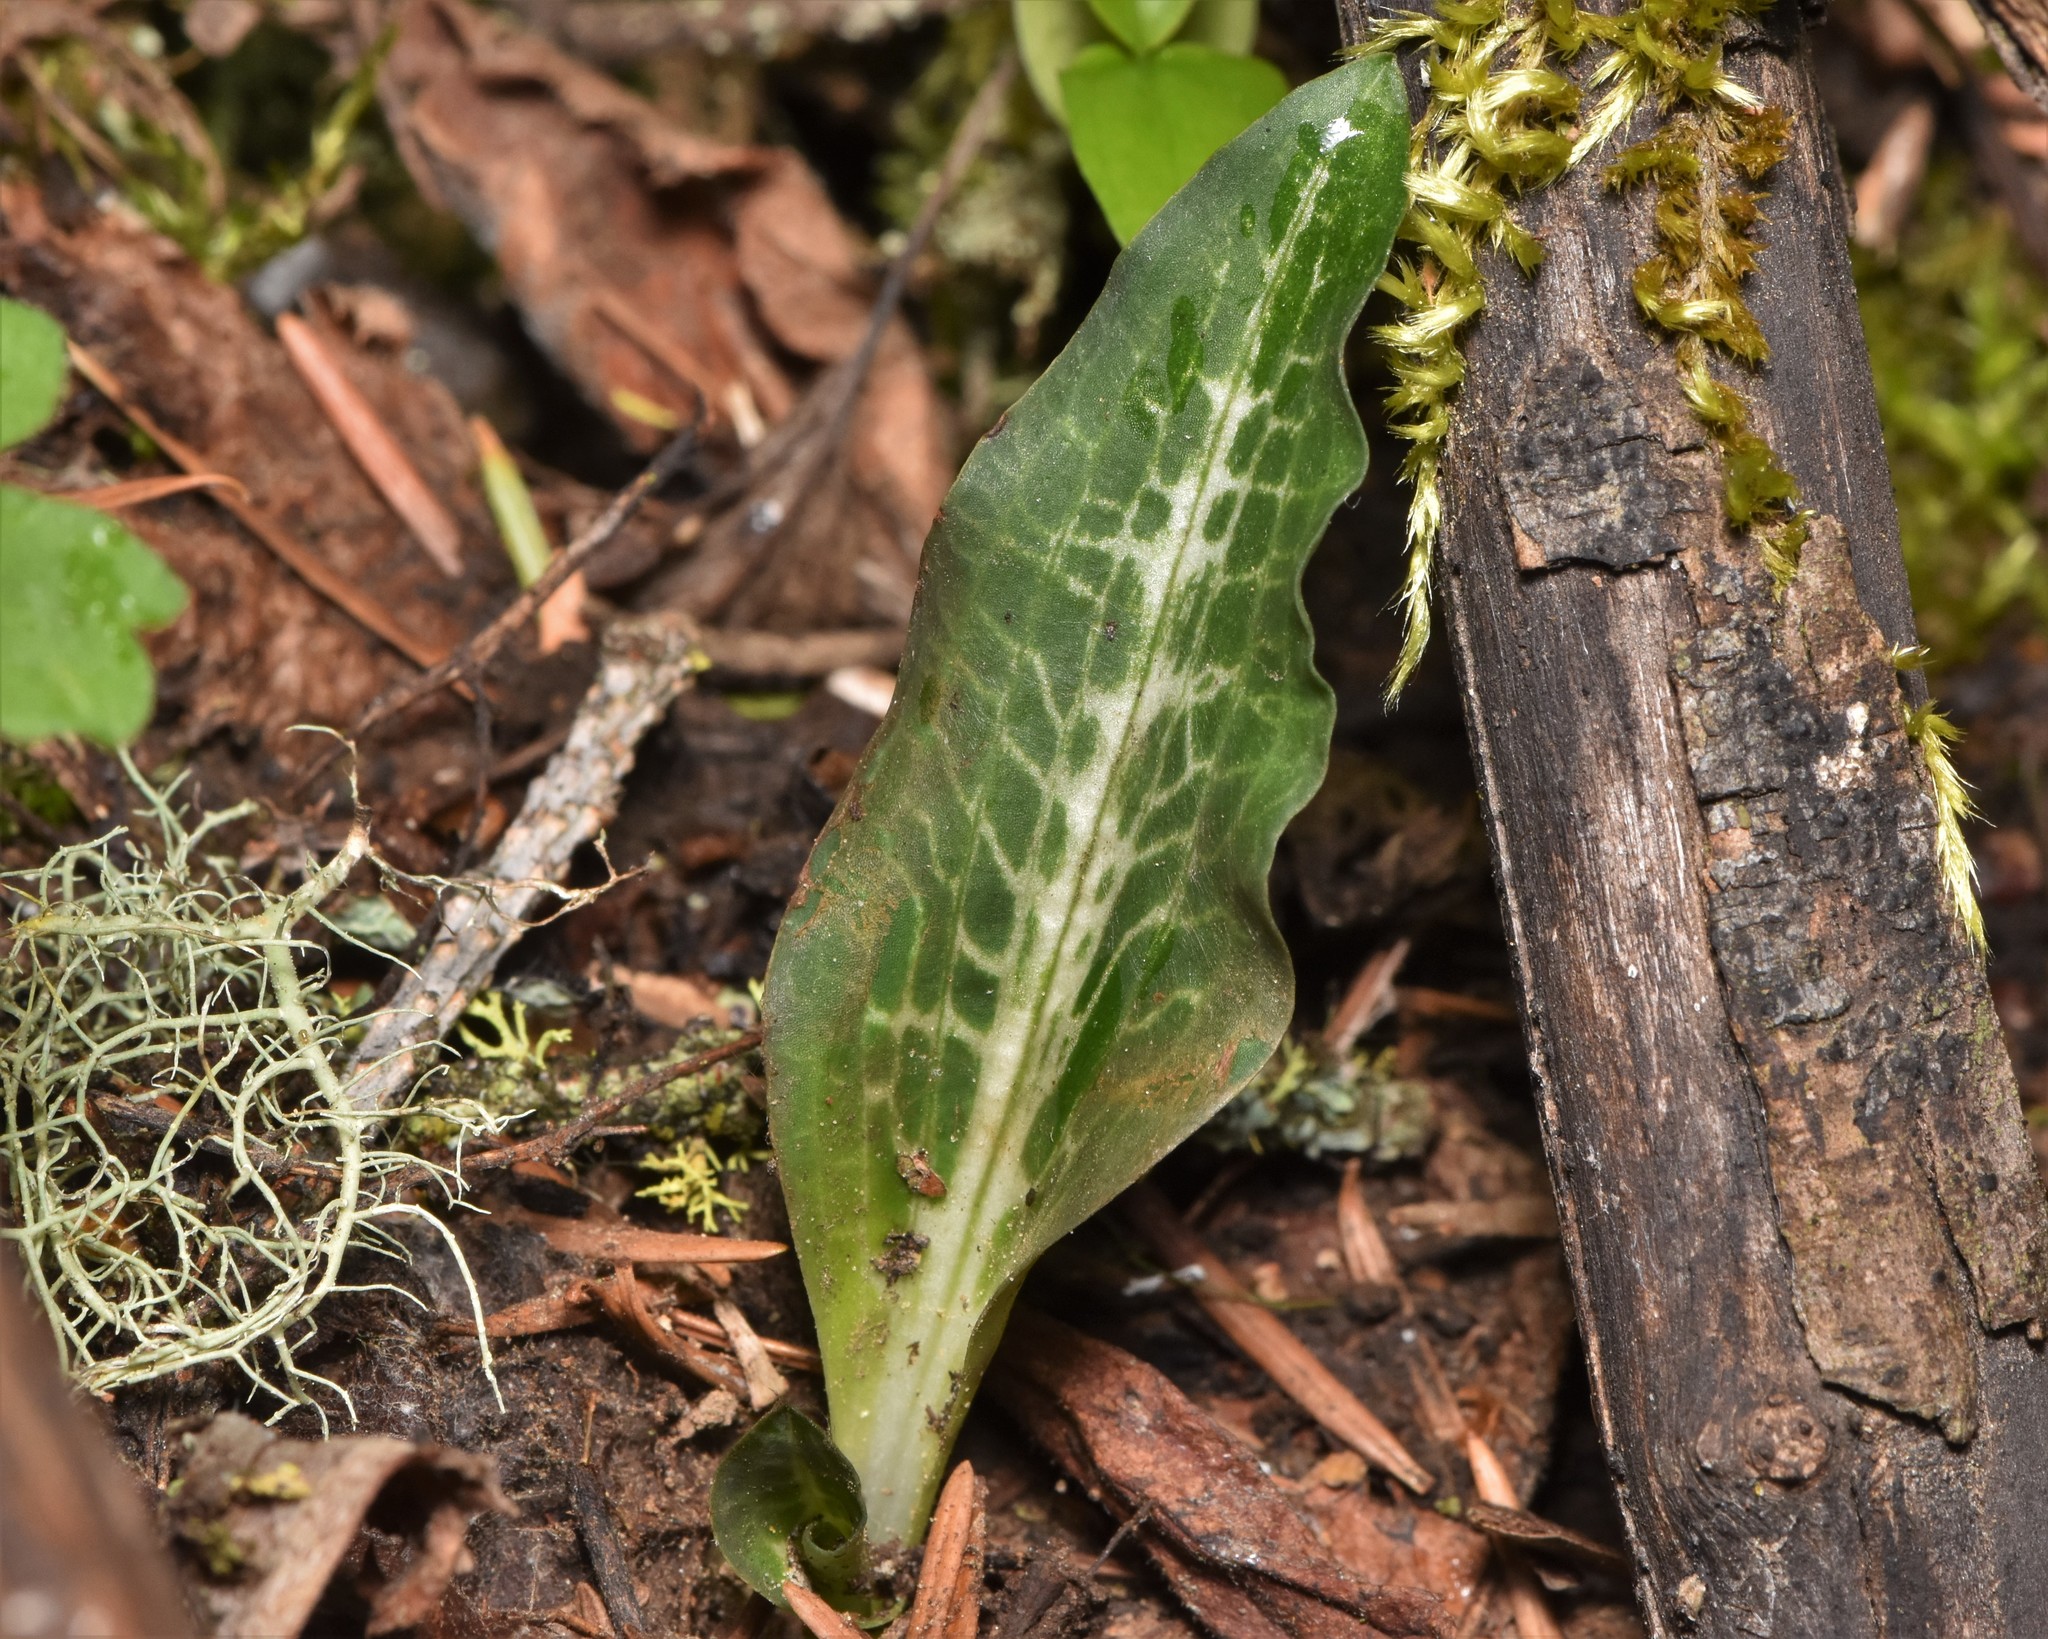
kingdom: Plantae
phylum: Tracheophyta
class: Liliopsida
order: Asparagales
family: Orchidaceae
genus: Goodyera
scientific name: Goodyera oblongifolia
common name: Giant rattlesnake-plantain
